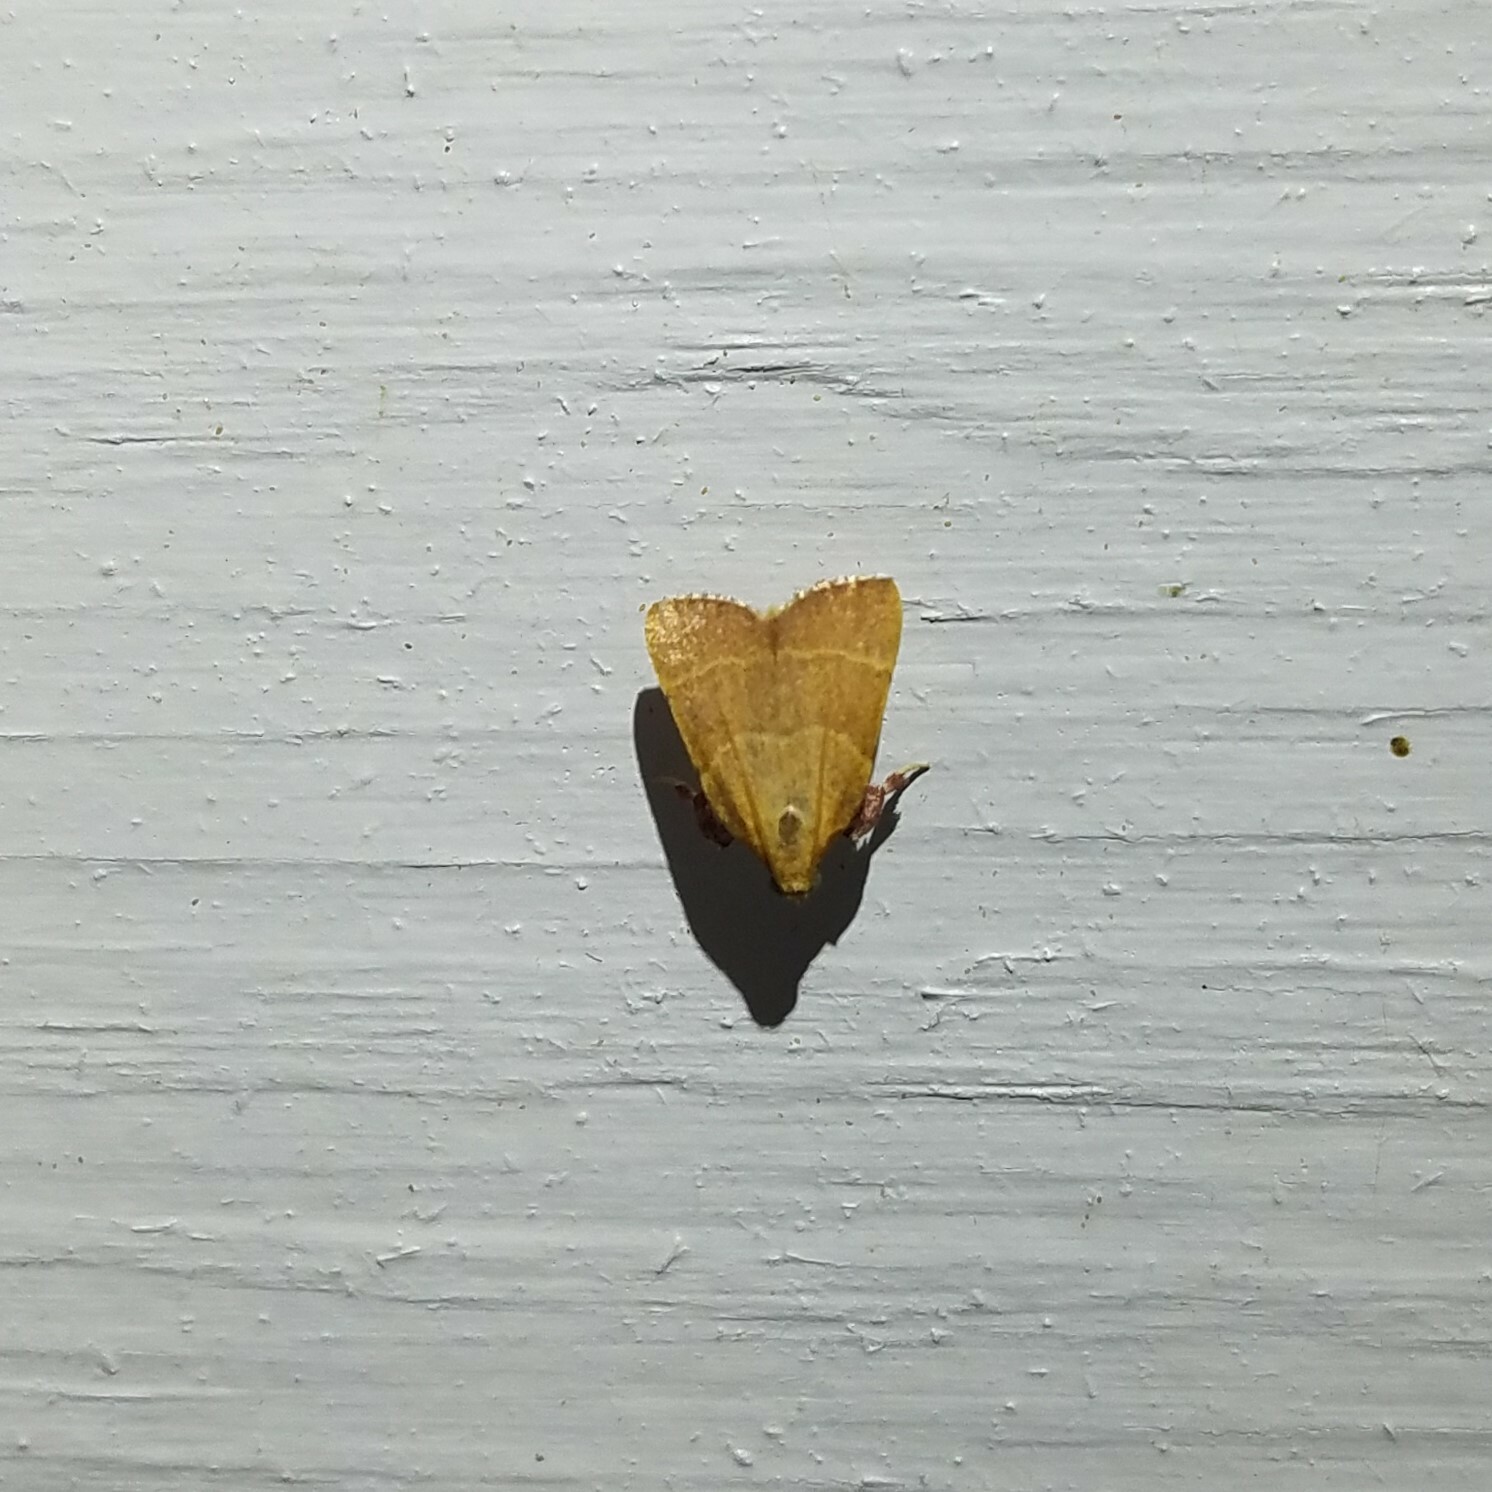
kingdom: Animalia
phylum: Arthropoda
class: Insecta
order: Lepidoptera
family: Pyralidae
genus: Parachma
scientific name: Parachma ochracealis
